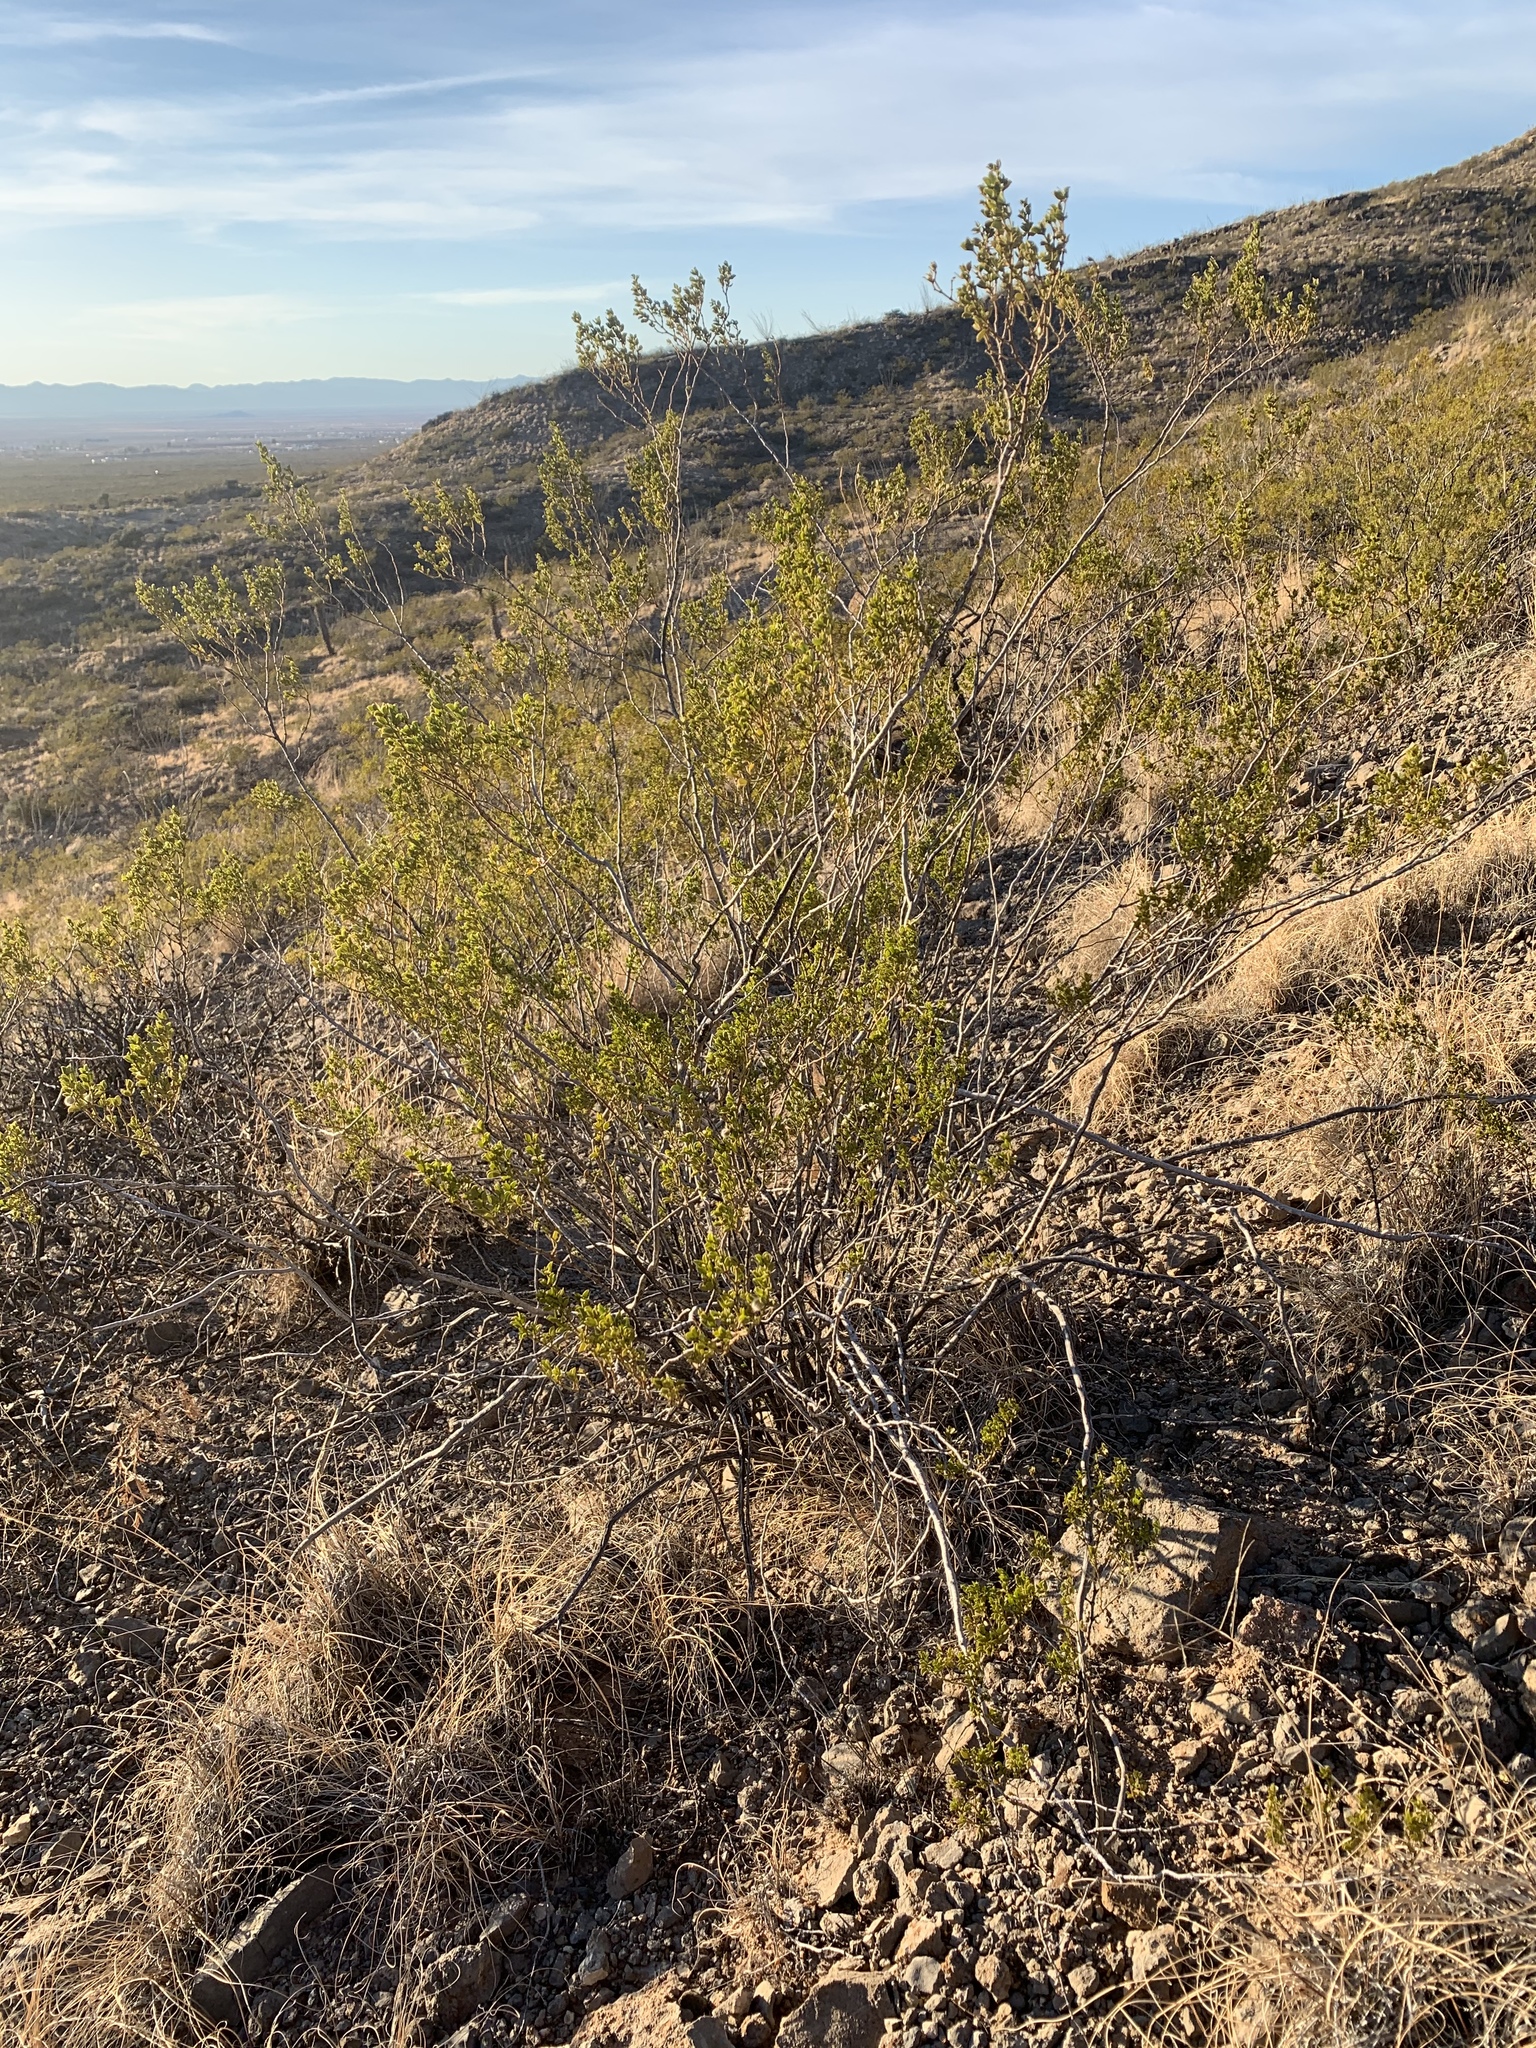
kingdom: Plantae
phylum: Tracheophyta
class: Magnoliopsida
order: Zygophyllales
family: Zygophyllaceae
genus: Larrea
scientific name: Larrea tridentata
